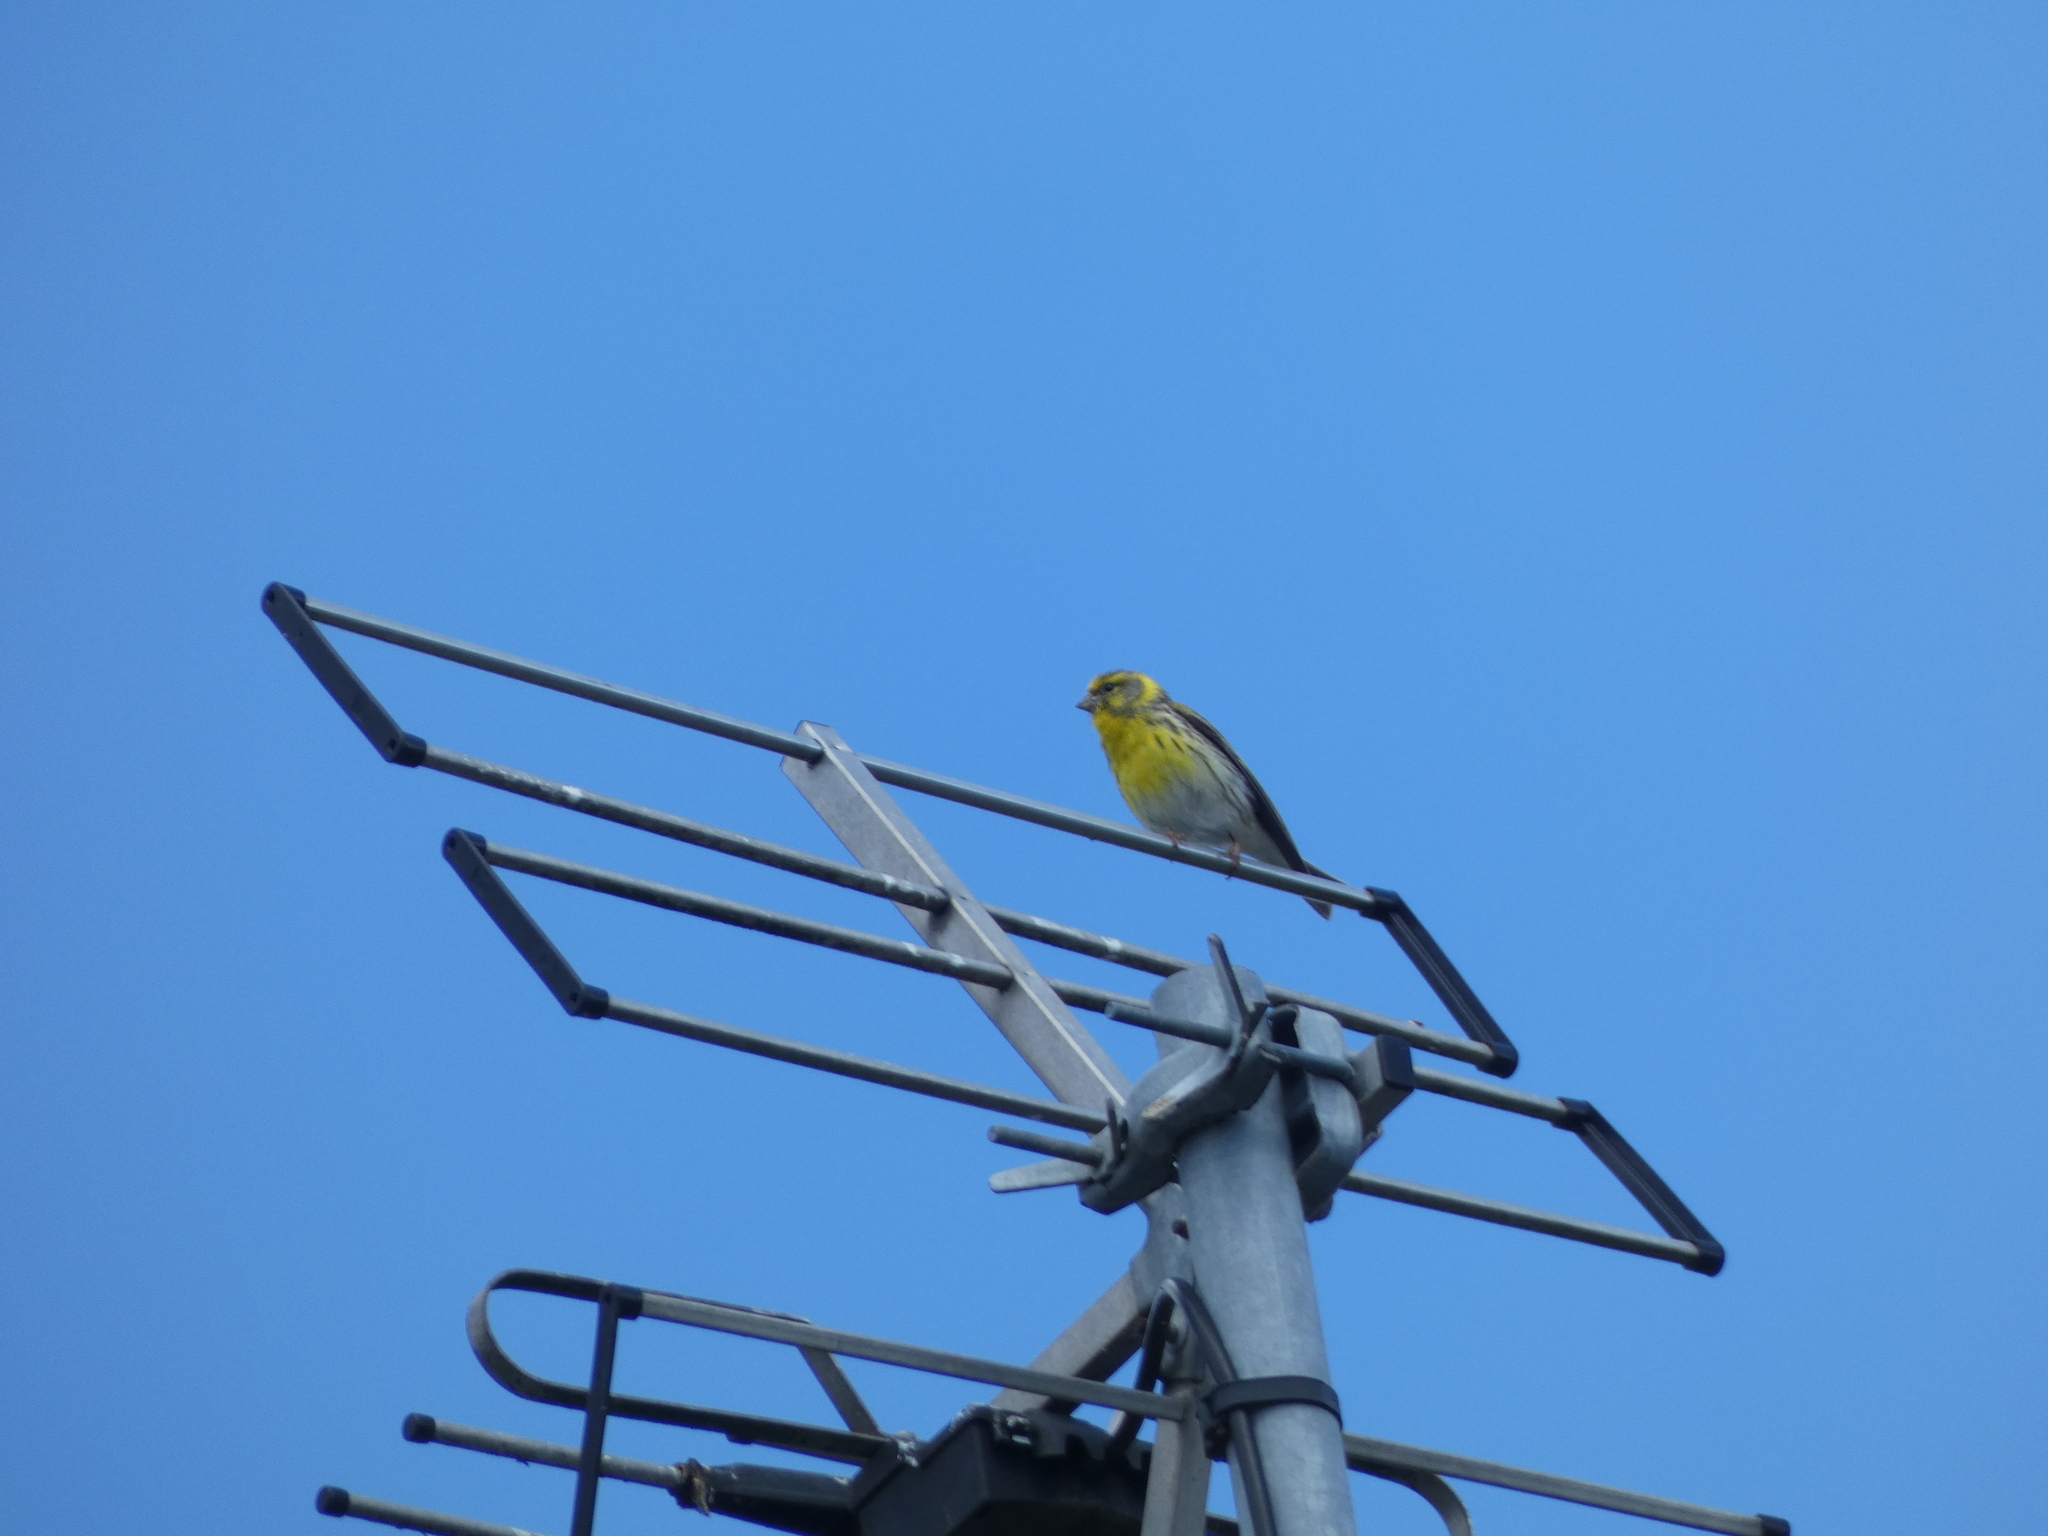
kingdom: Animalia
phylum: Chordata
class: Aves
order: Passeriformes
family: Fringillidae
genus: Serinus
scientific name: Serinus serinus
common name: European serin
